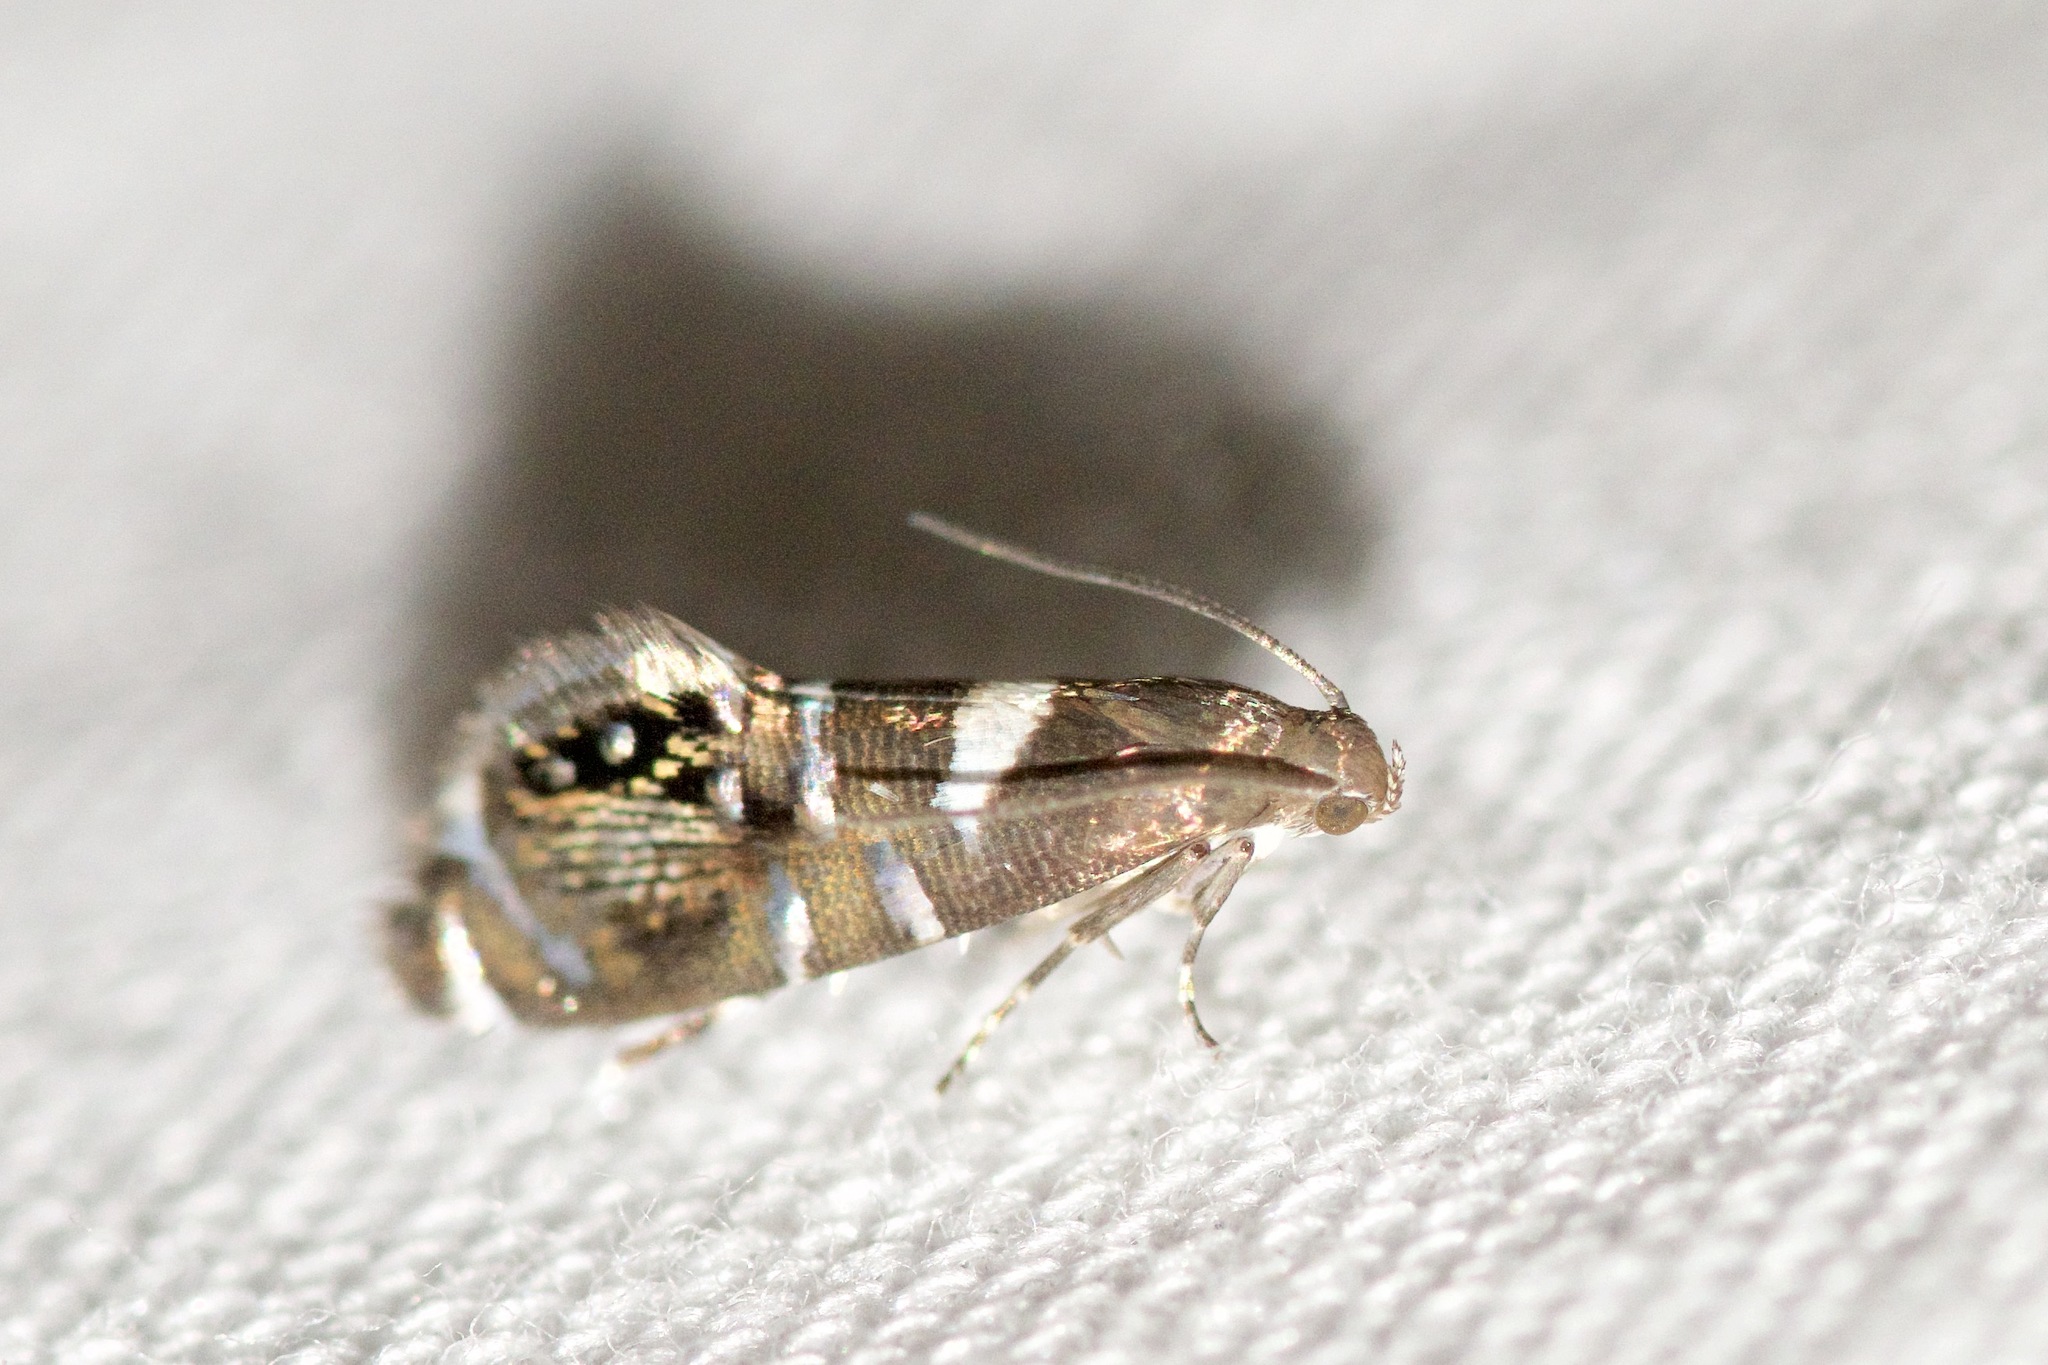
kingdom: Animalia
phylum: Arthropoda
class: Insecta
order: Lepidoptera
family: Glyphipterigidae
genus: Glyphipterix
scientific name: Glyphipterix circumscriptella
